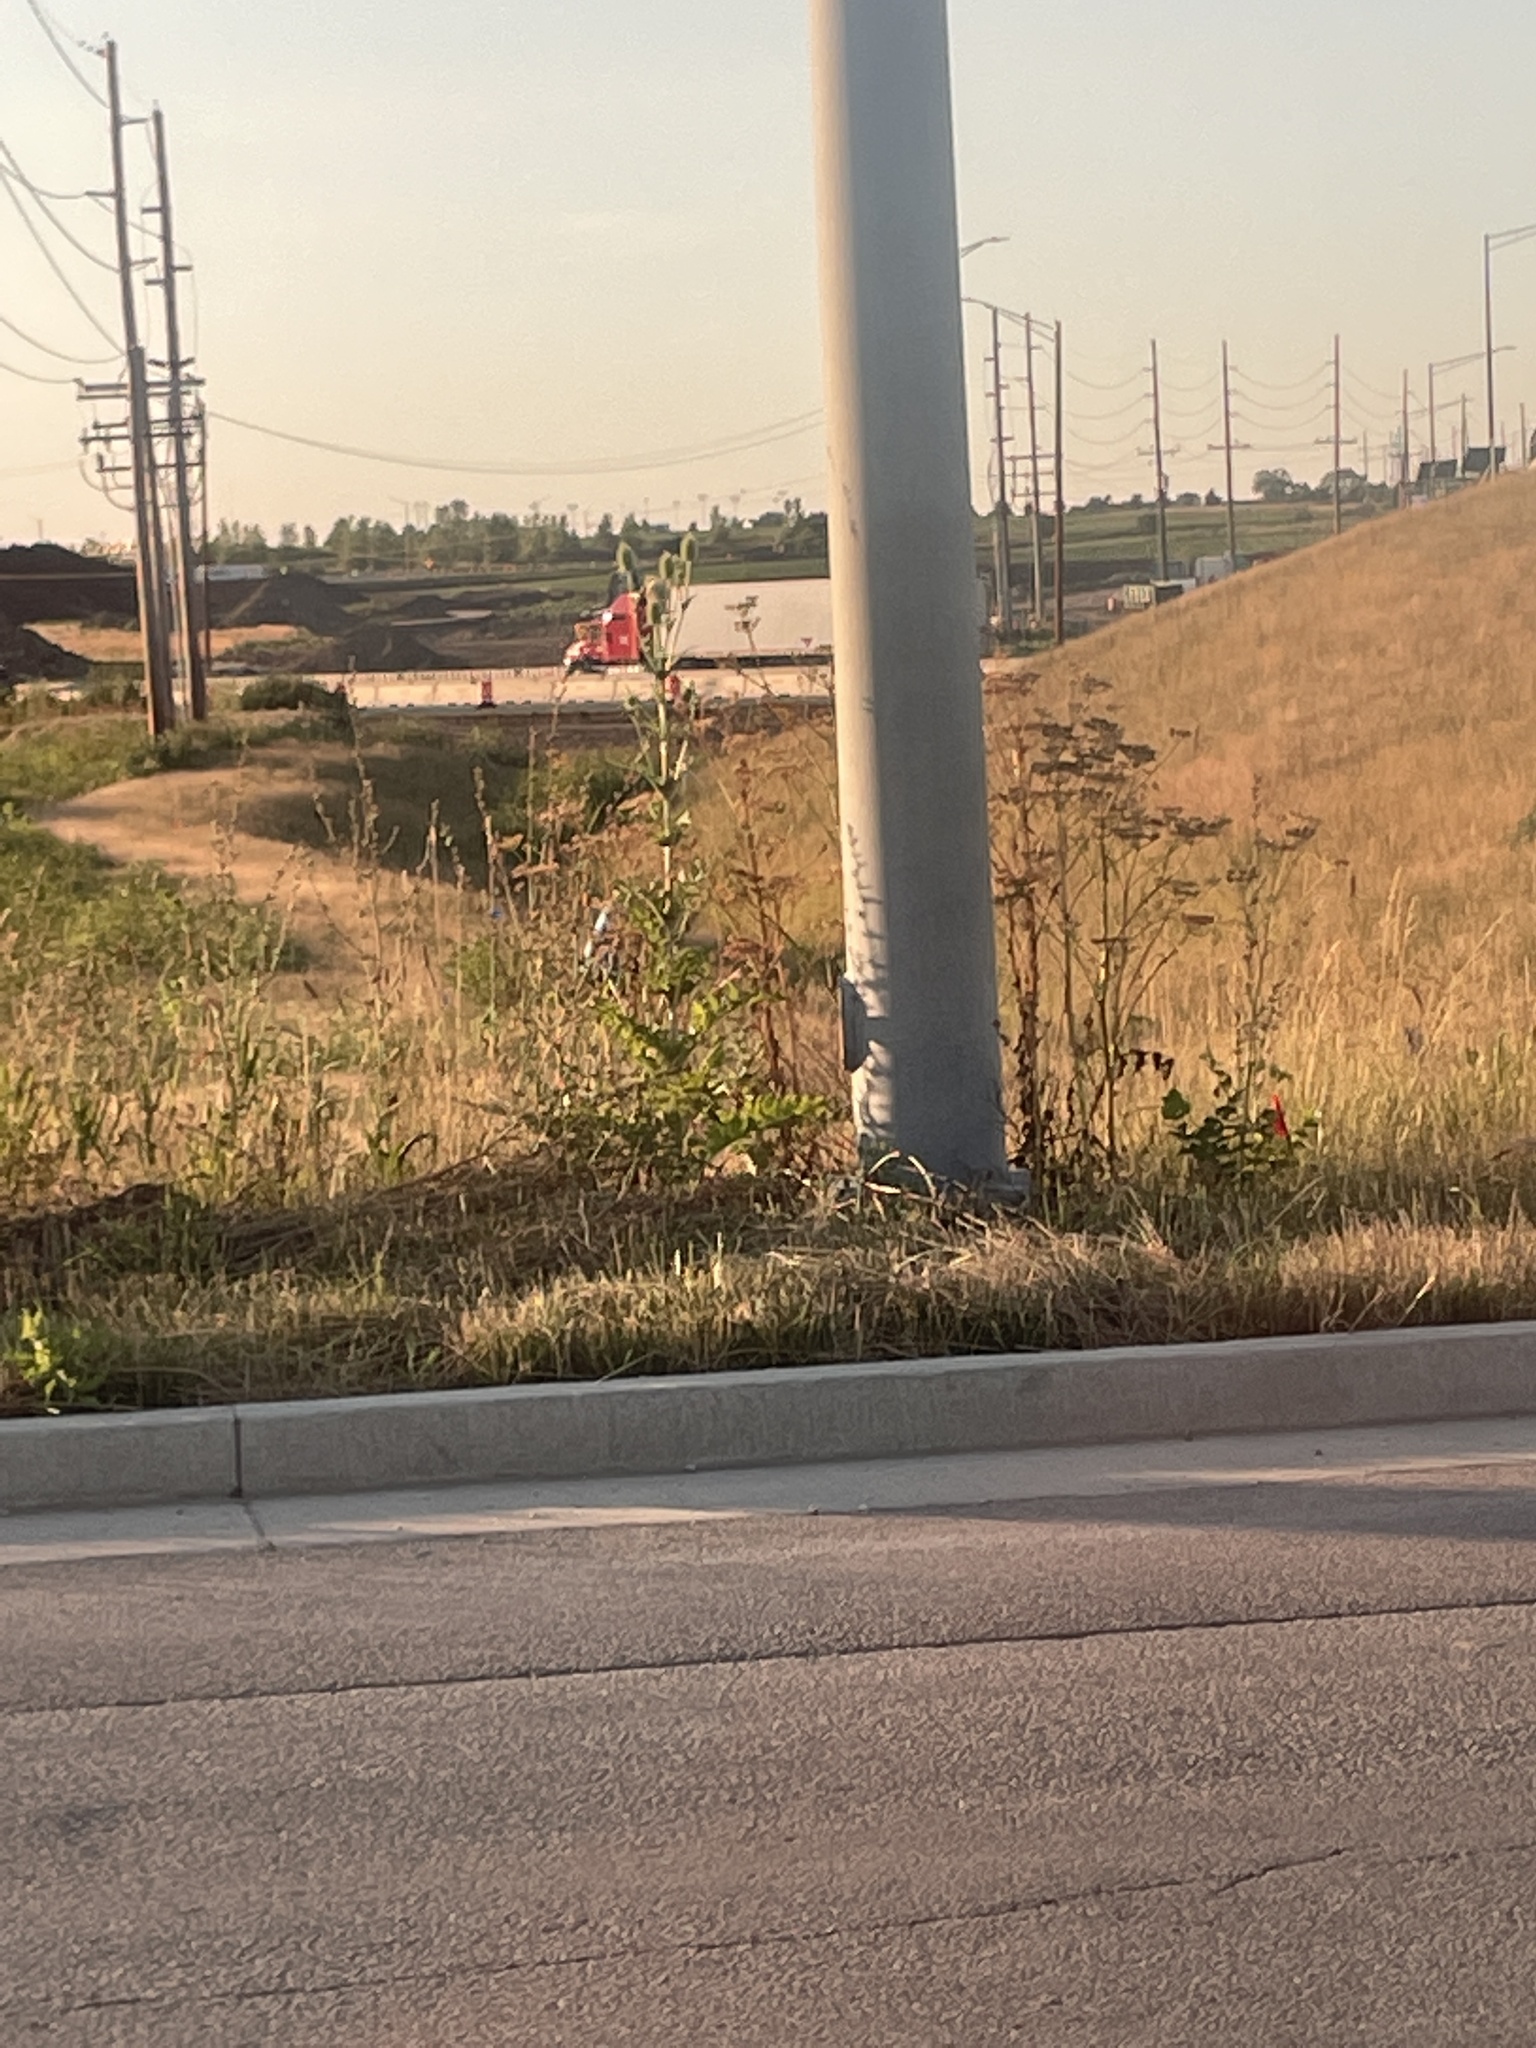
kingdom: Plantae
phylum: Tracheophyta
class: Magnoliopsida
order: Dipsacales
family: Caprifoliaceae
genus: Dipsacus
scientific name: Dipsacus laciniatus
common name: Cut-leaved teasel
